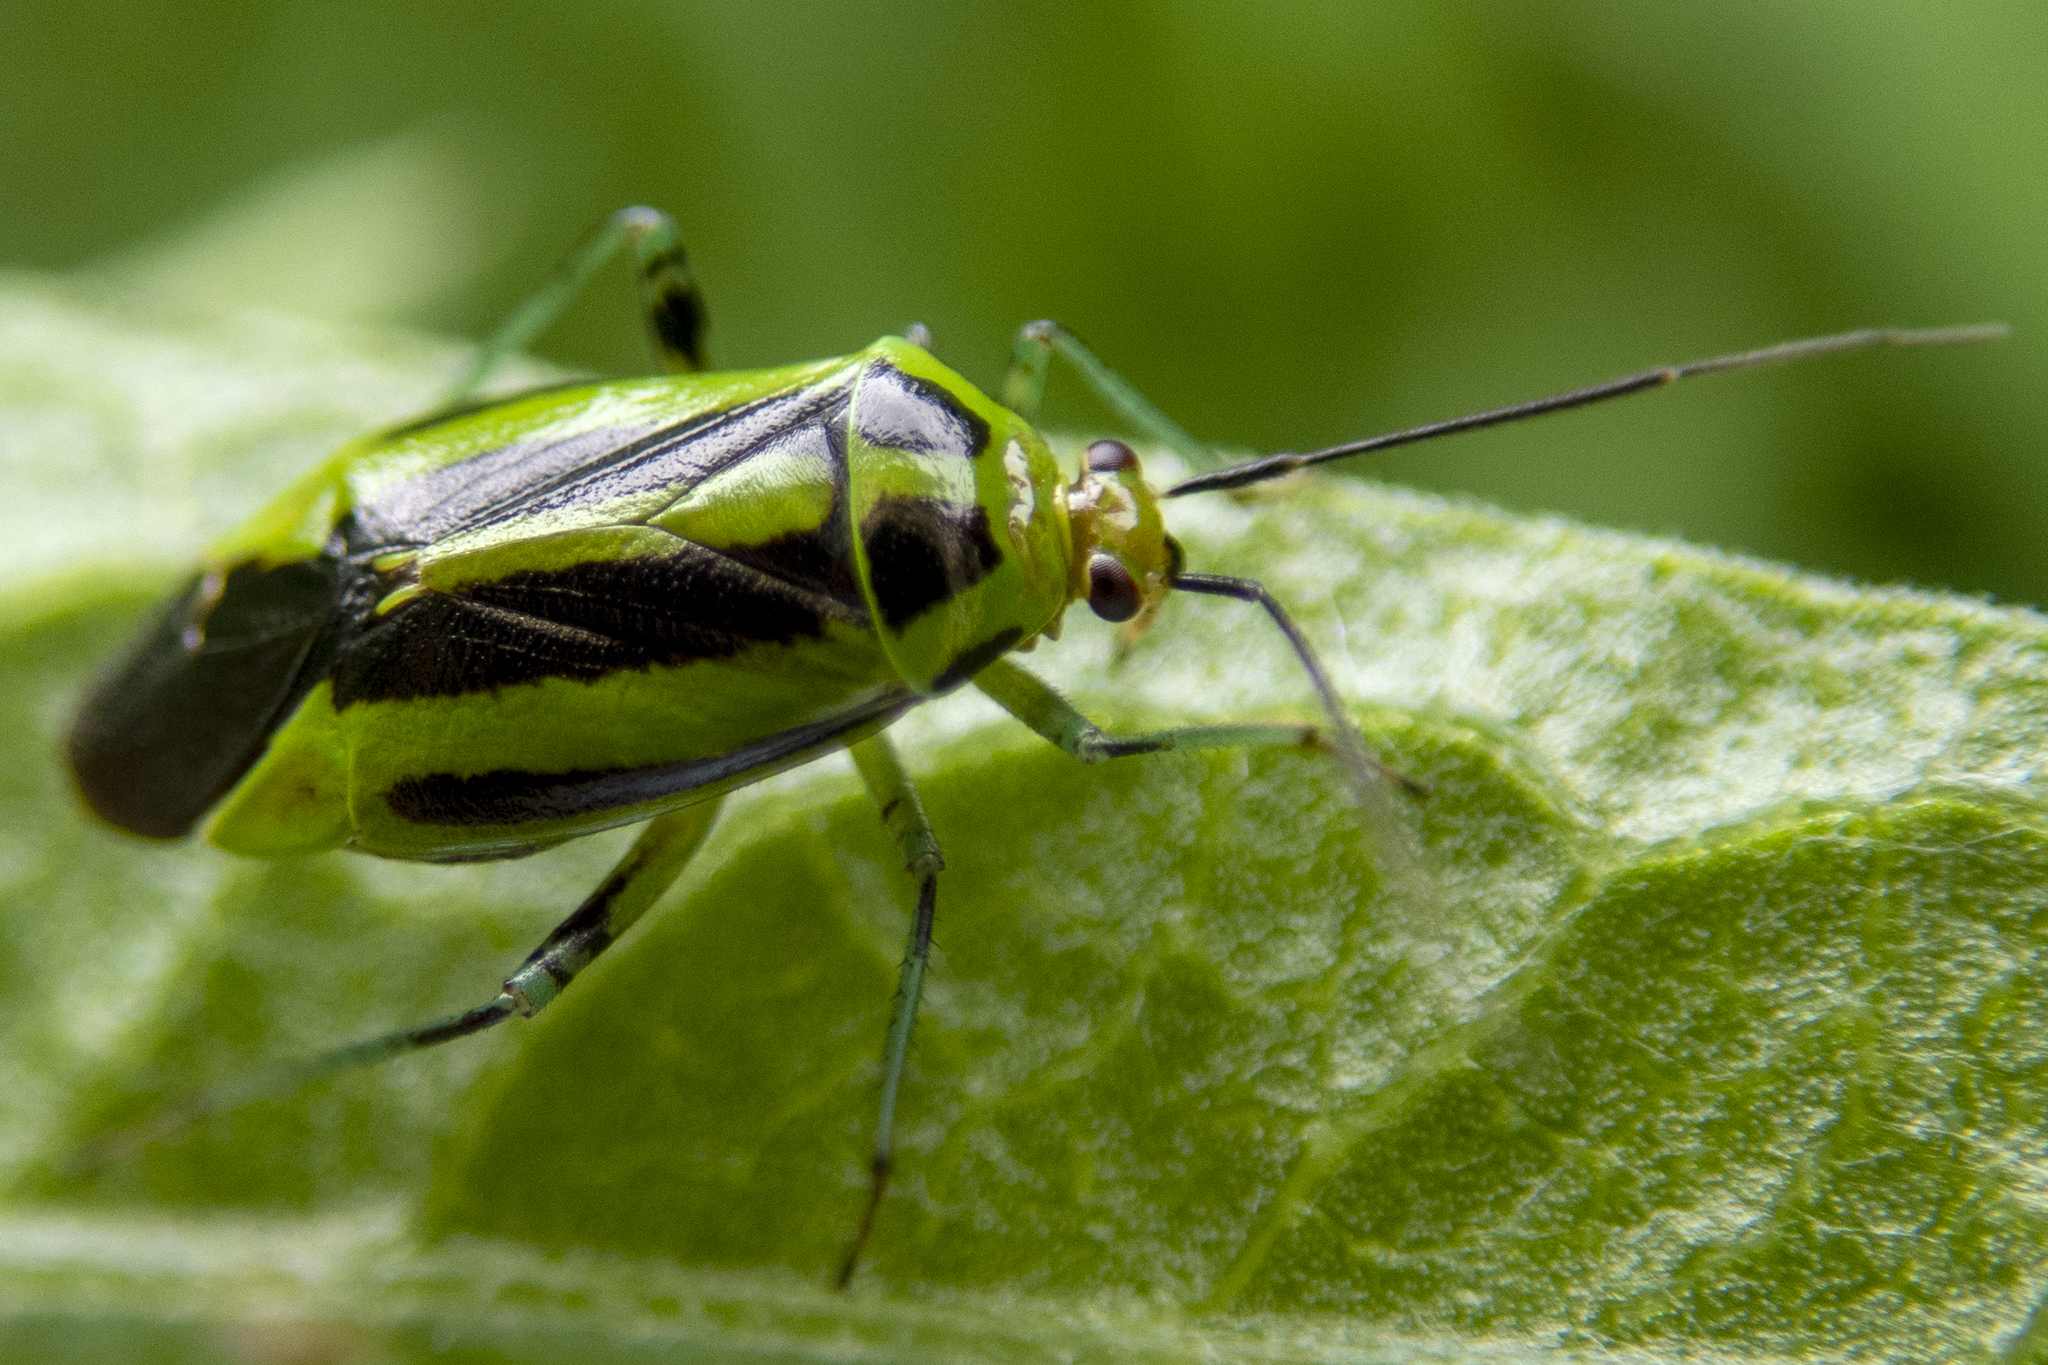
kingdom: Animalia
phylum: Arthropoda
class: Insecta
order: Hemiptera
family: Miridae
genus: Poecilocapsus
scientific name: Poecilocapsus lineatus
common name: Four-lined plant bug
